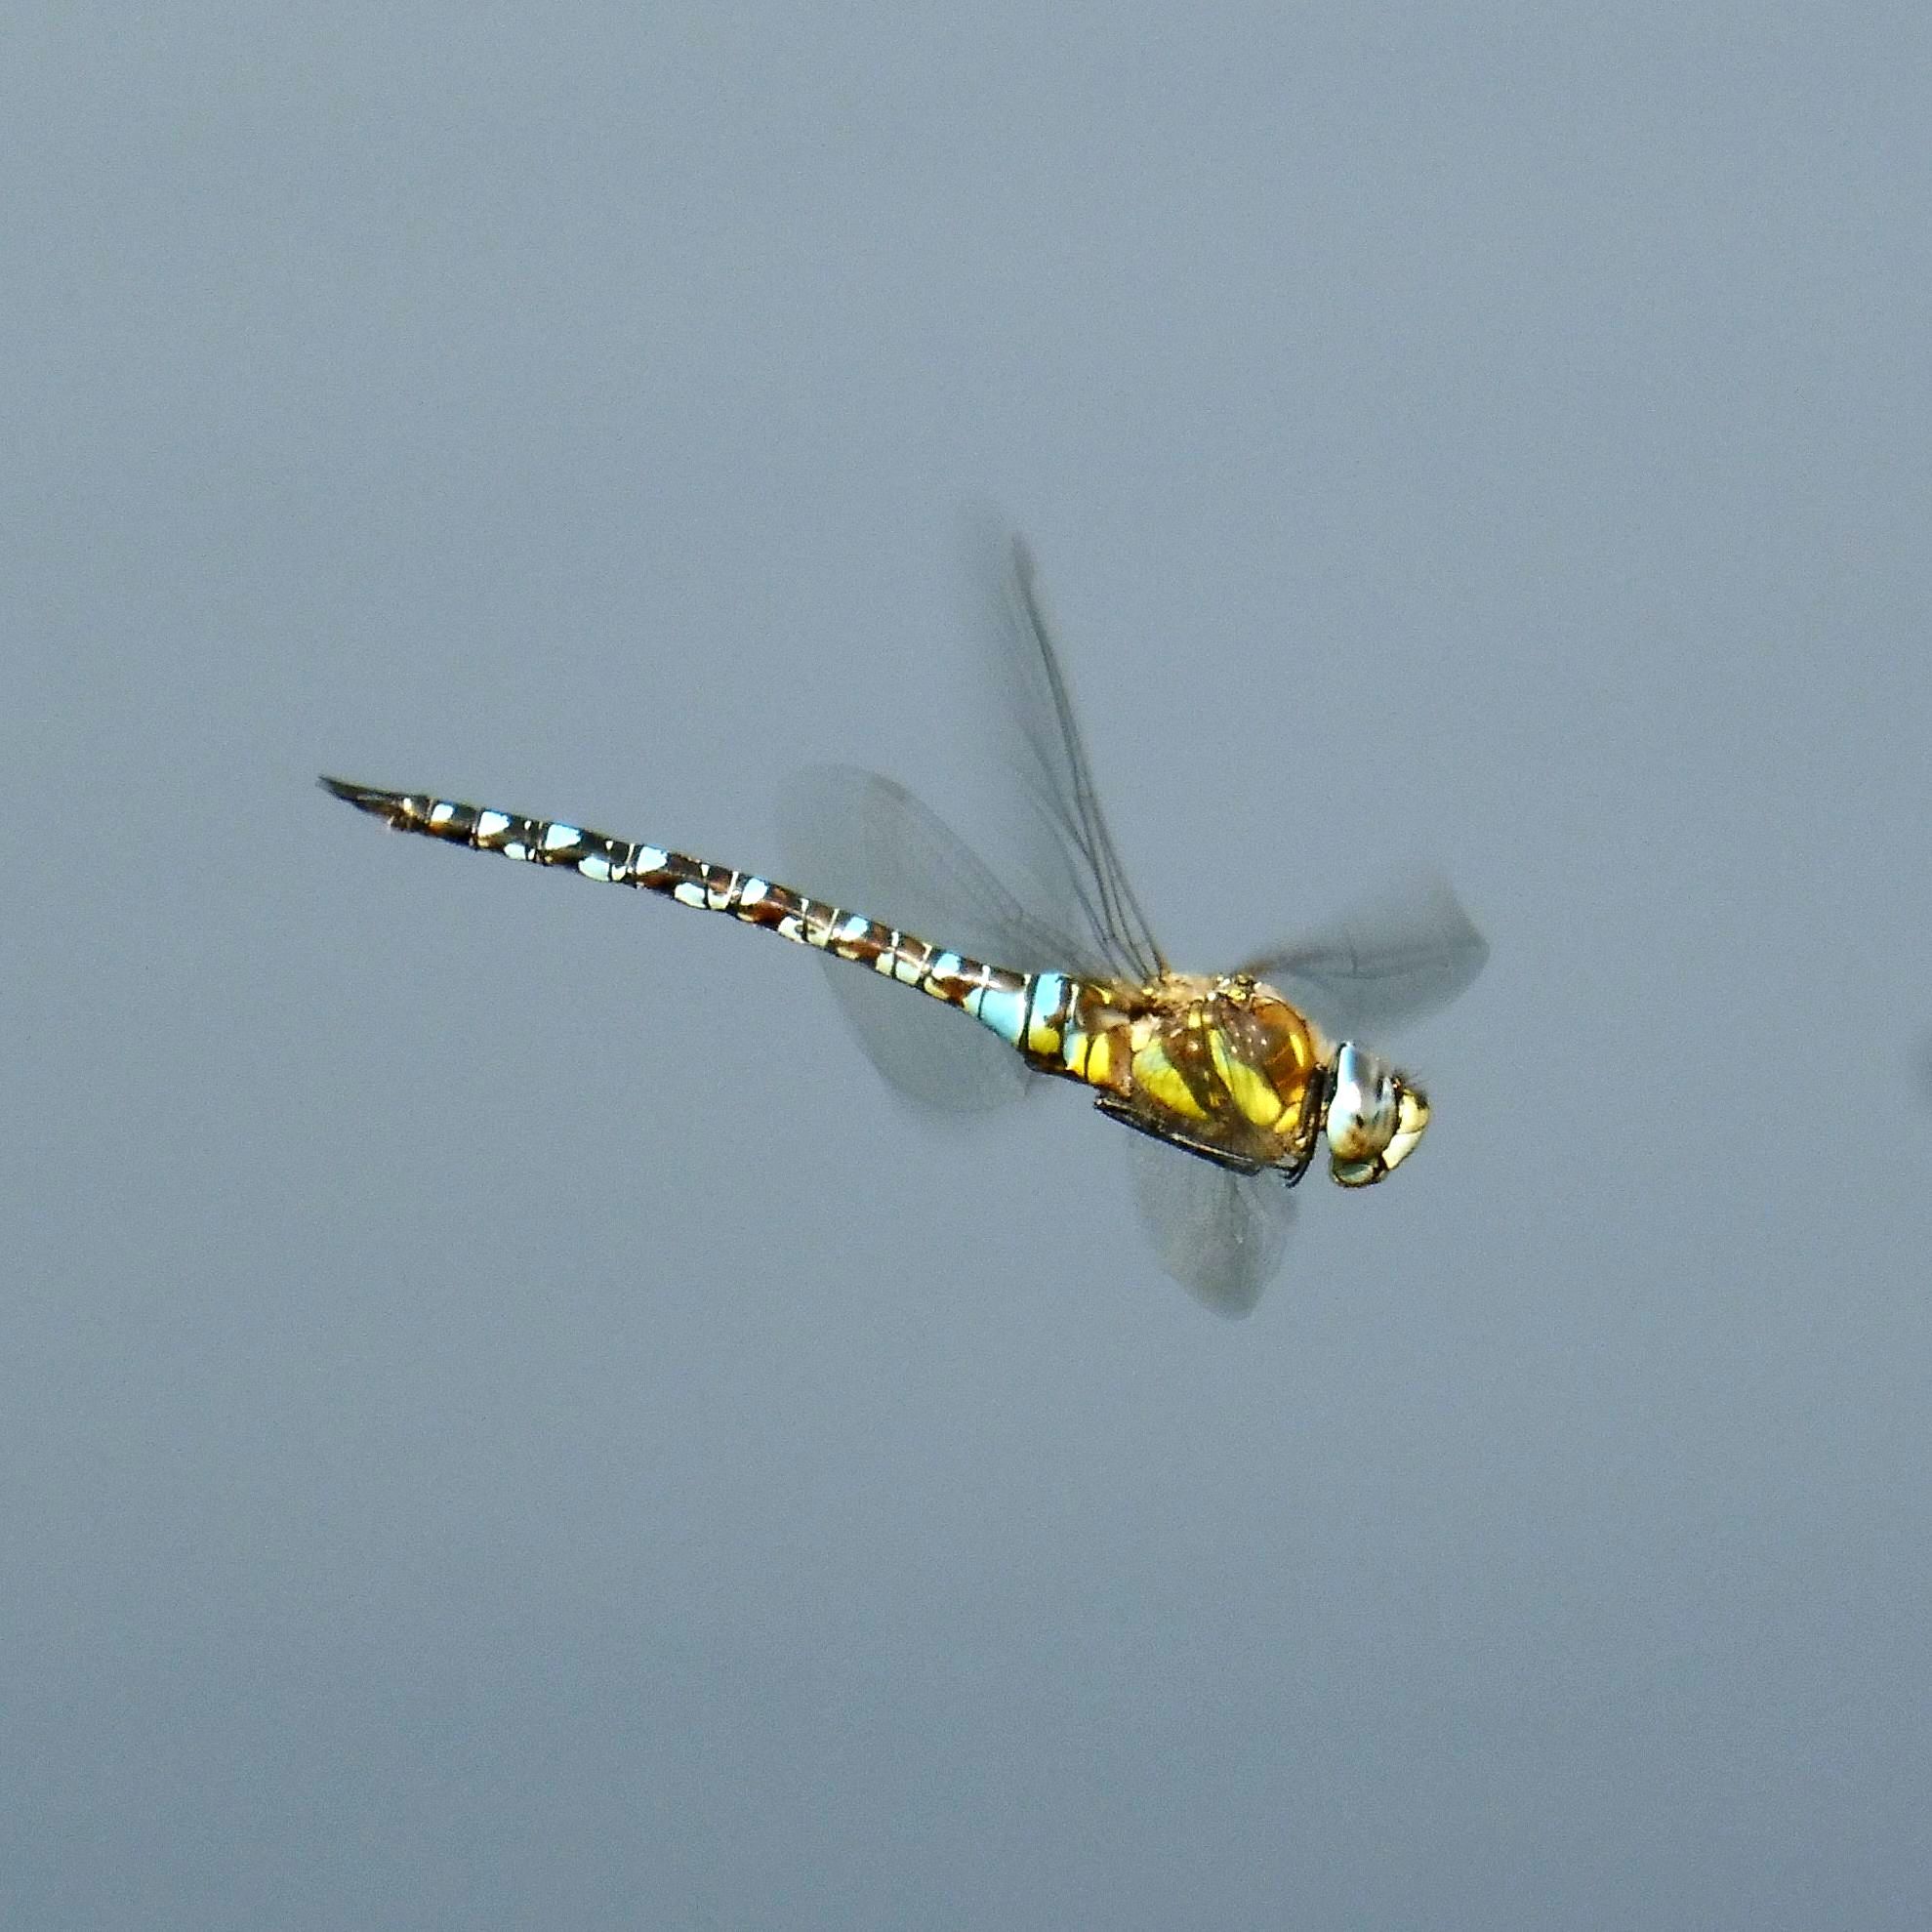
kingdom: Animalia
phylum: Arthropoda
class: Insecta
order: Odonata
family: Aeshnidae
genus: Aeshna
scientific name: Aeshna mixta
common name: Migrant hawker
